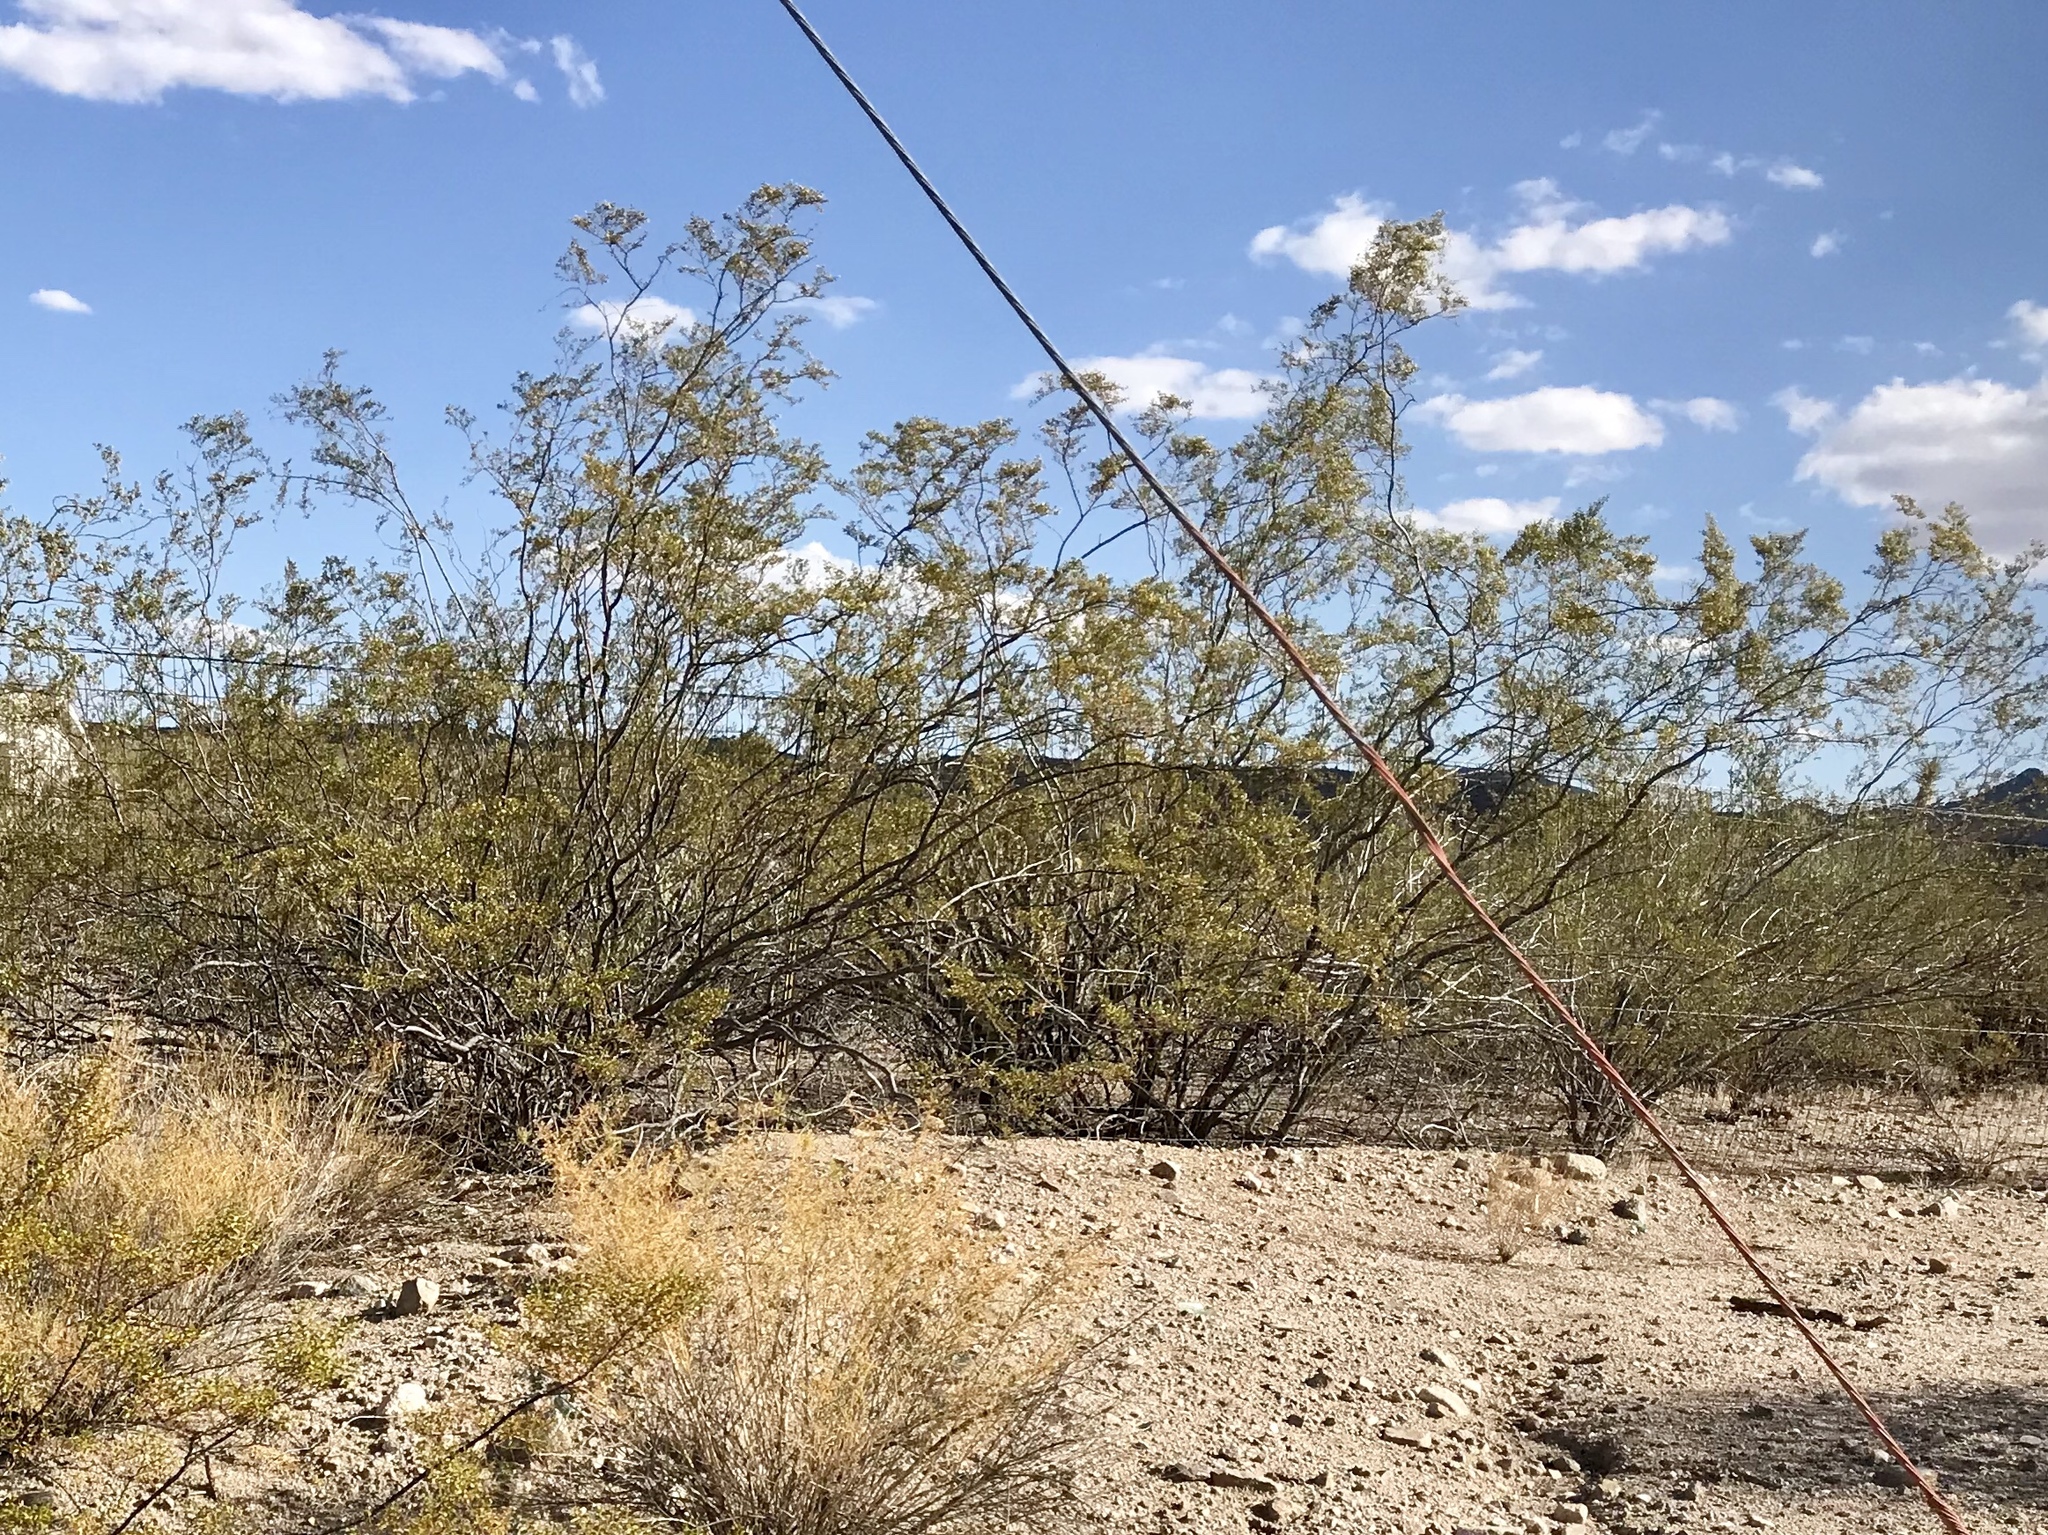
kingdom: Plantae
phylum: Tracheophyta
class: Magnoliopsida
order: Zygophyllales
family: Zygophyllaceae
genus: Larrea
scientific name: Larrea tridentata
